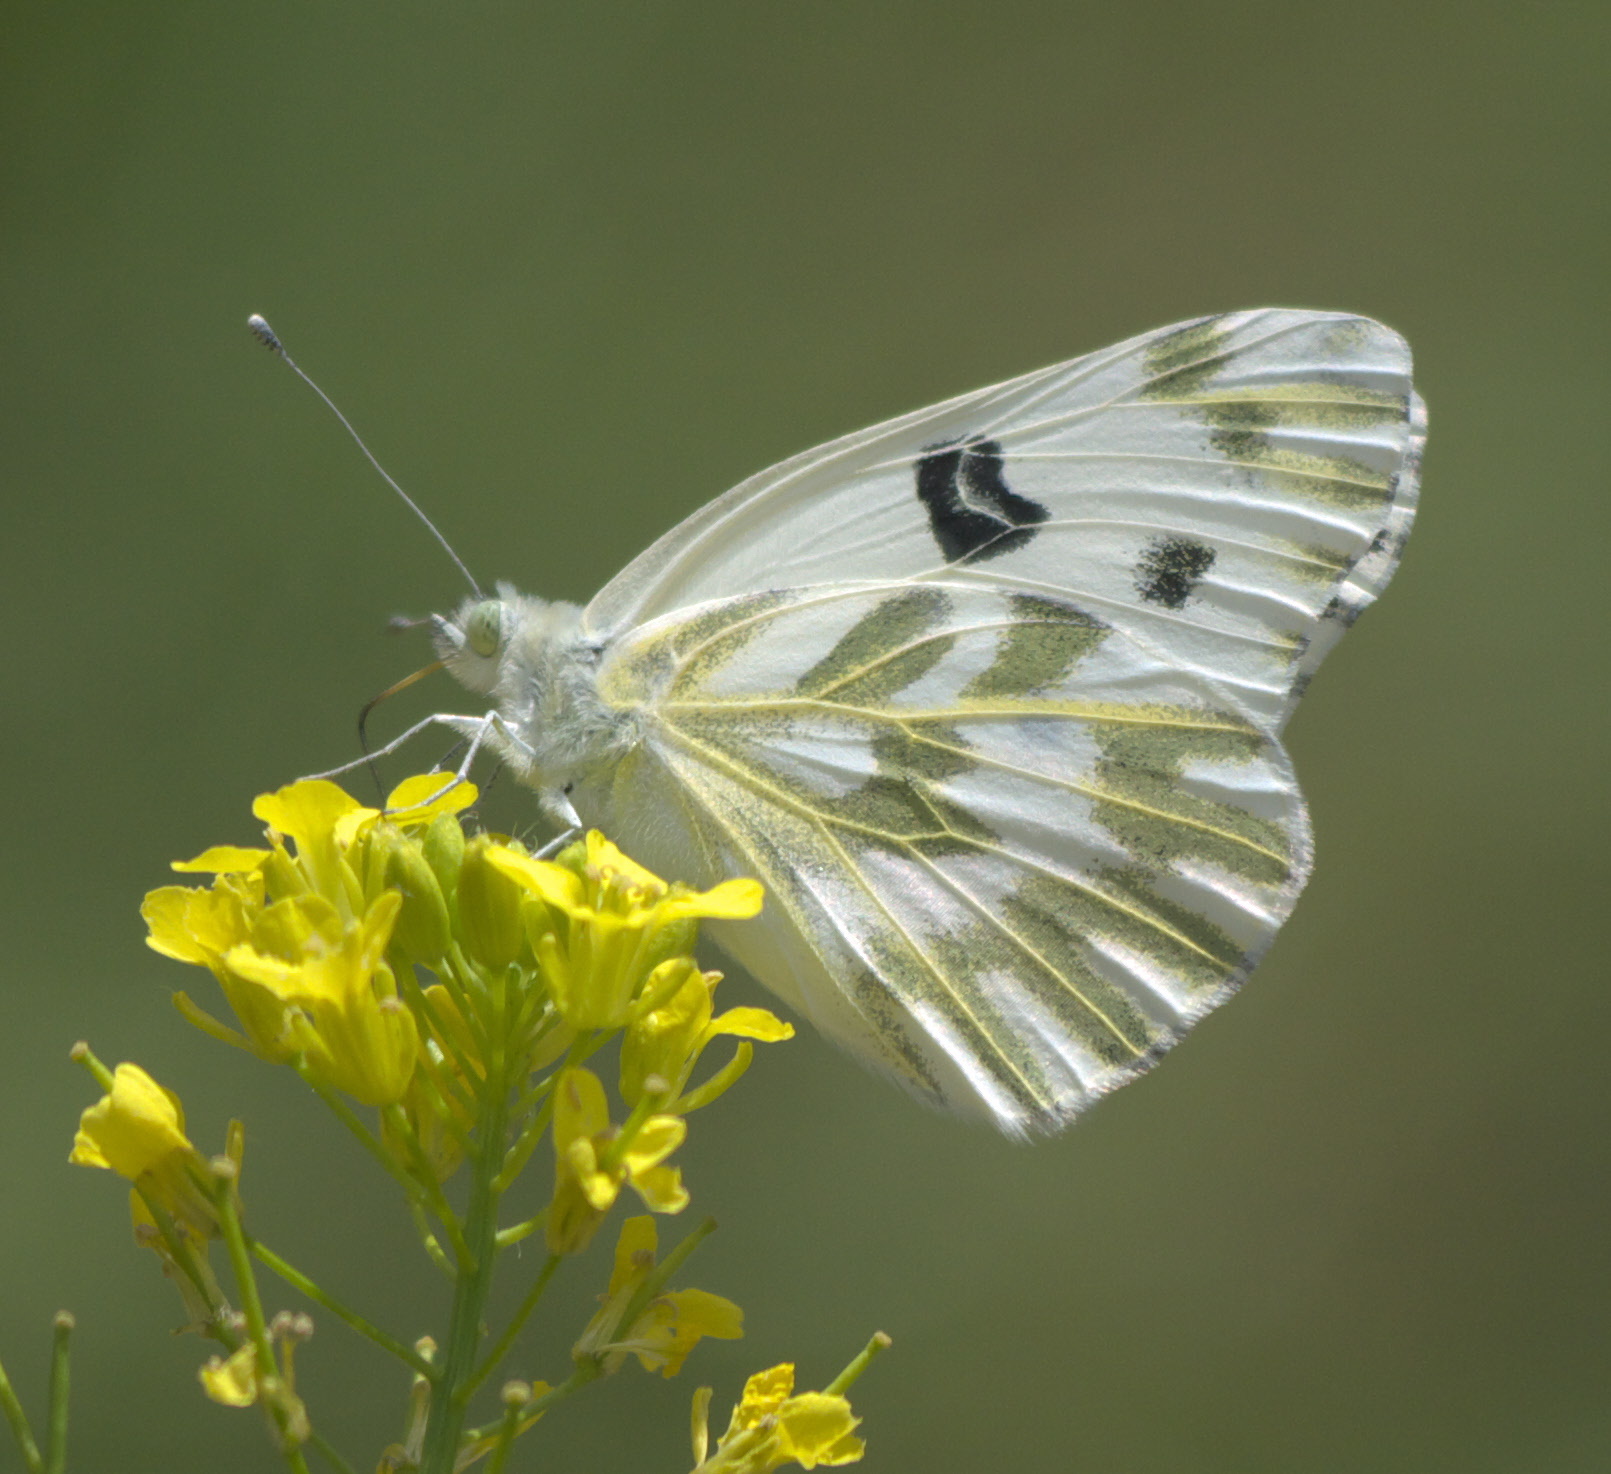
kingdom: Animalia
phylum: Arthropoda
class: Insecta
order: Lepidoptera
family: Pieridae
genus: Pontia
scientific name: Pontia beckerii
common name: Becker's white
